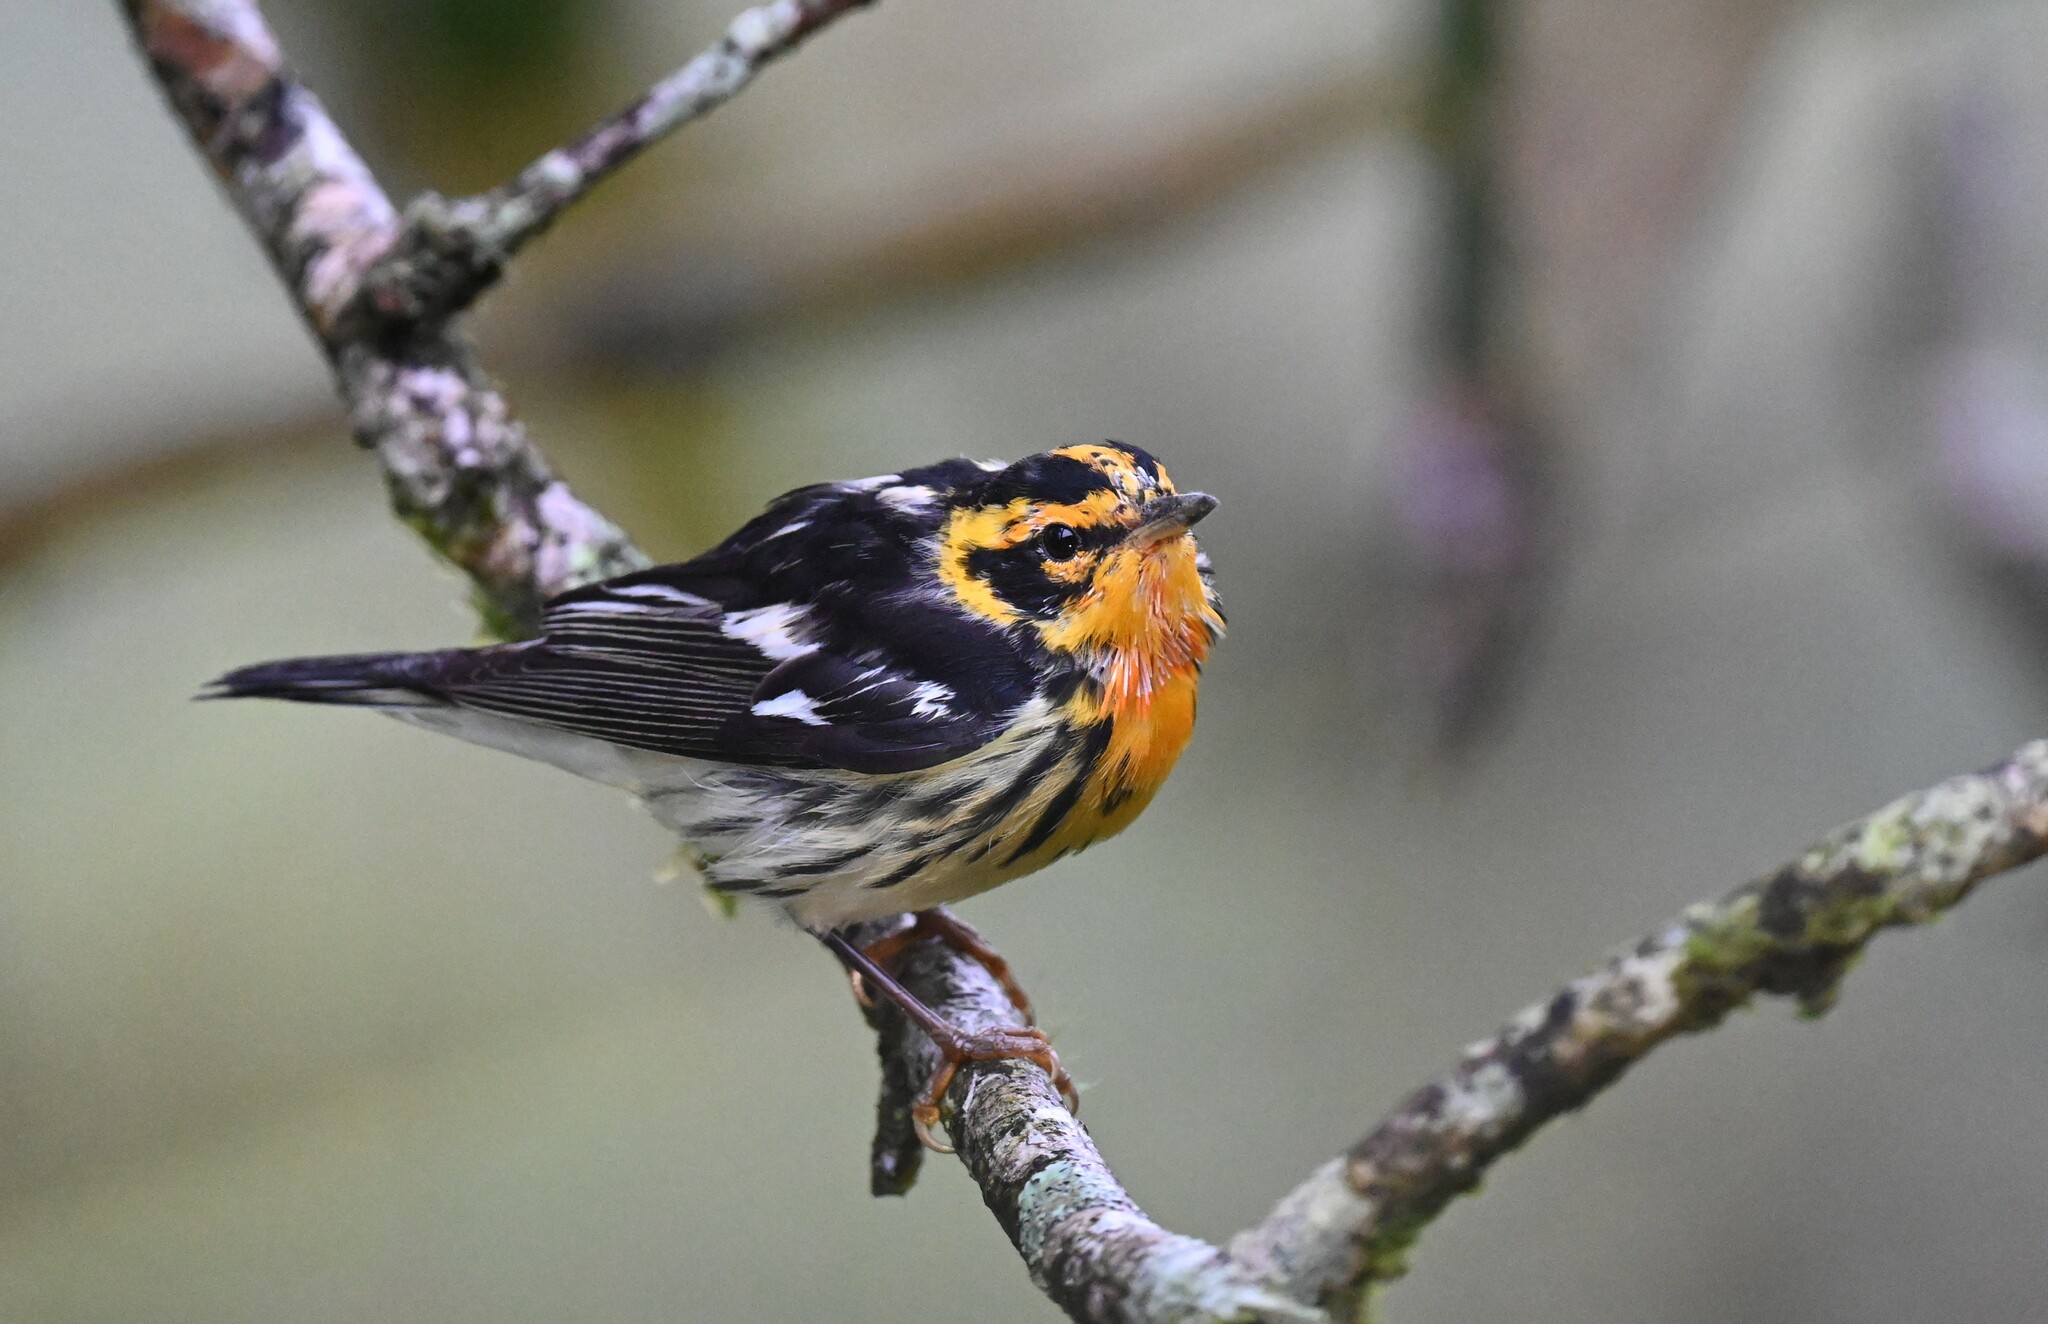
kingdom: Animalia
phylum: Chordata
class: Aves
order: Passeriformes
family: Parulidae
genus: Setophaga
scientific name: Setophaga fusca
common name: Blackburnian warbler
